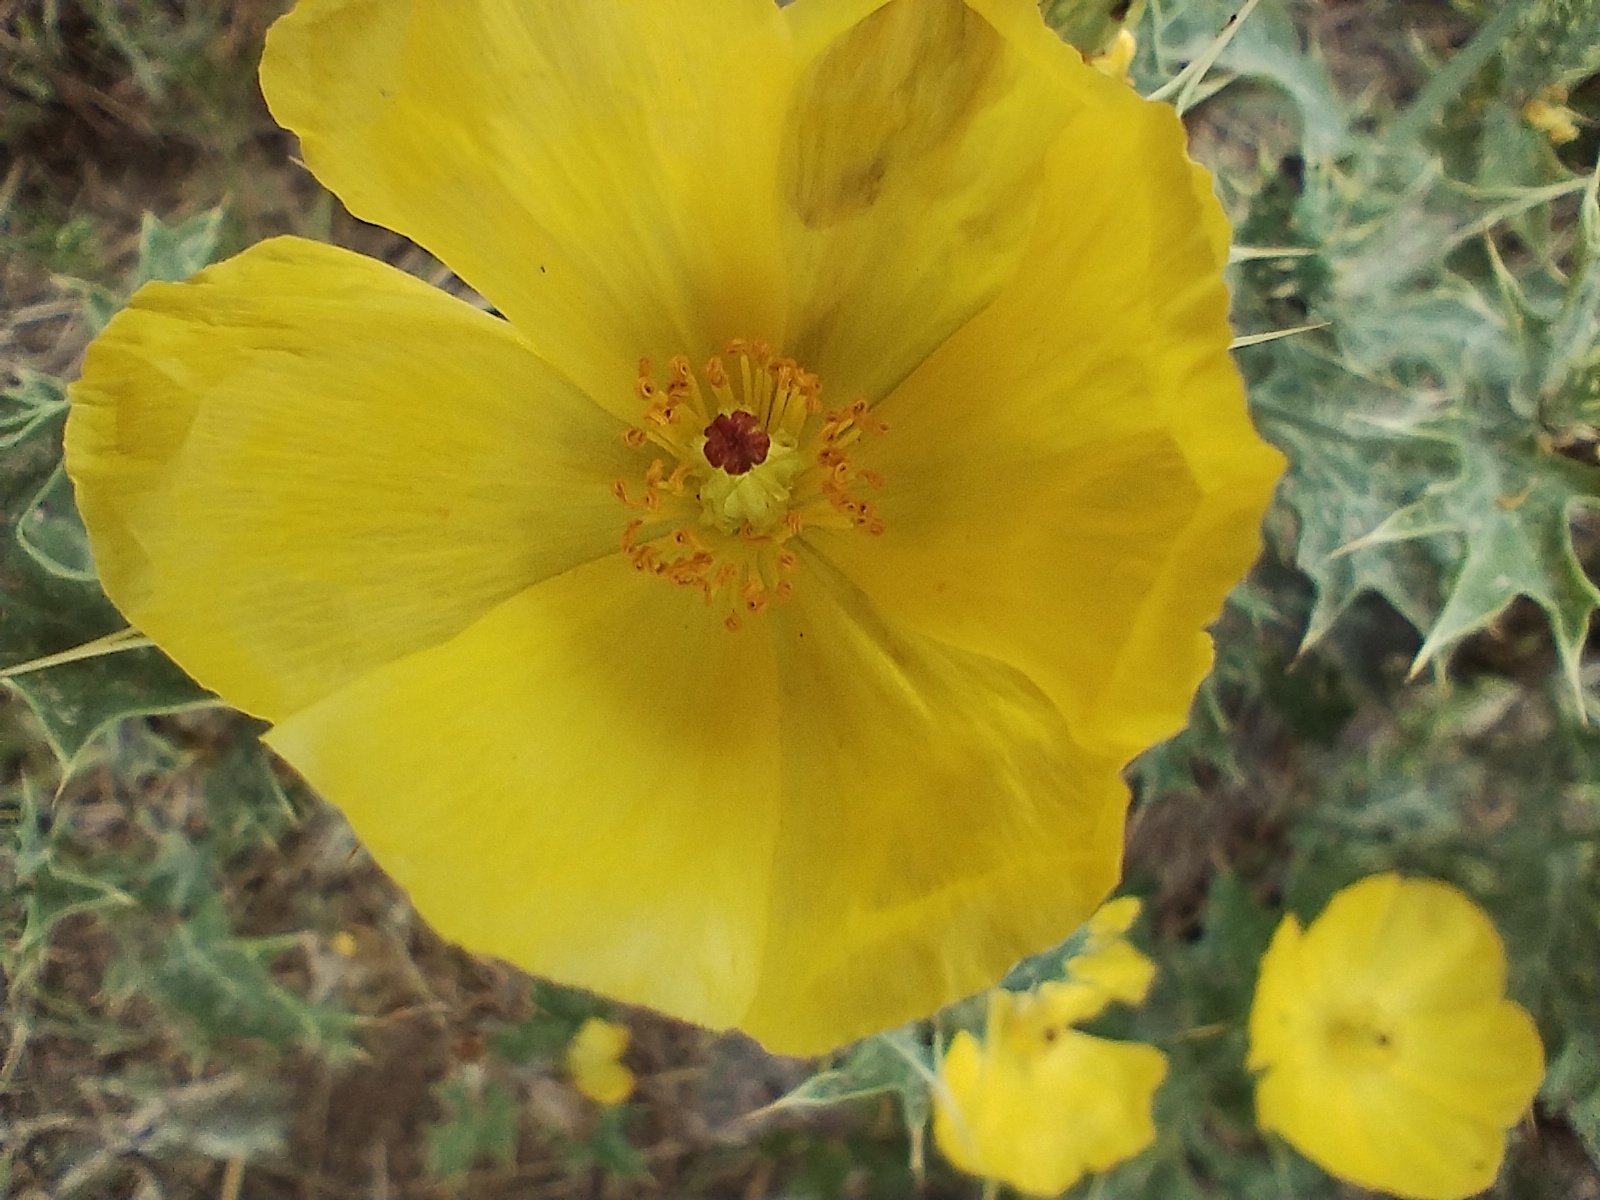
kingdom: Plantae
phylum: Tracheophyta
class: Magnoliopsida
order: Ranunculales
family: Papaveraceae
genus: Argemone
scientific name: Argemone subfusiformis
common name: American-poppy
